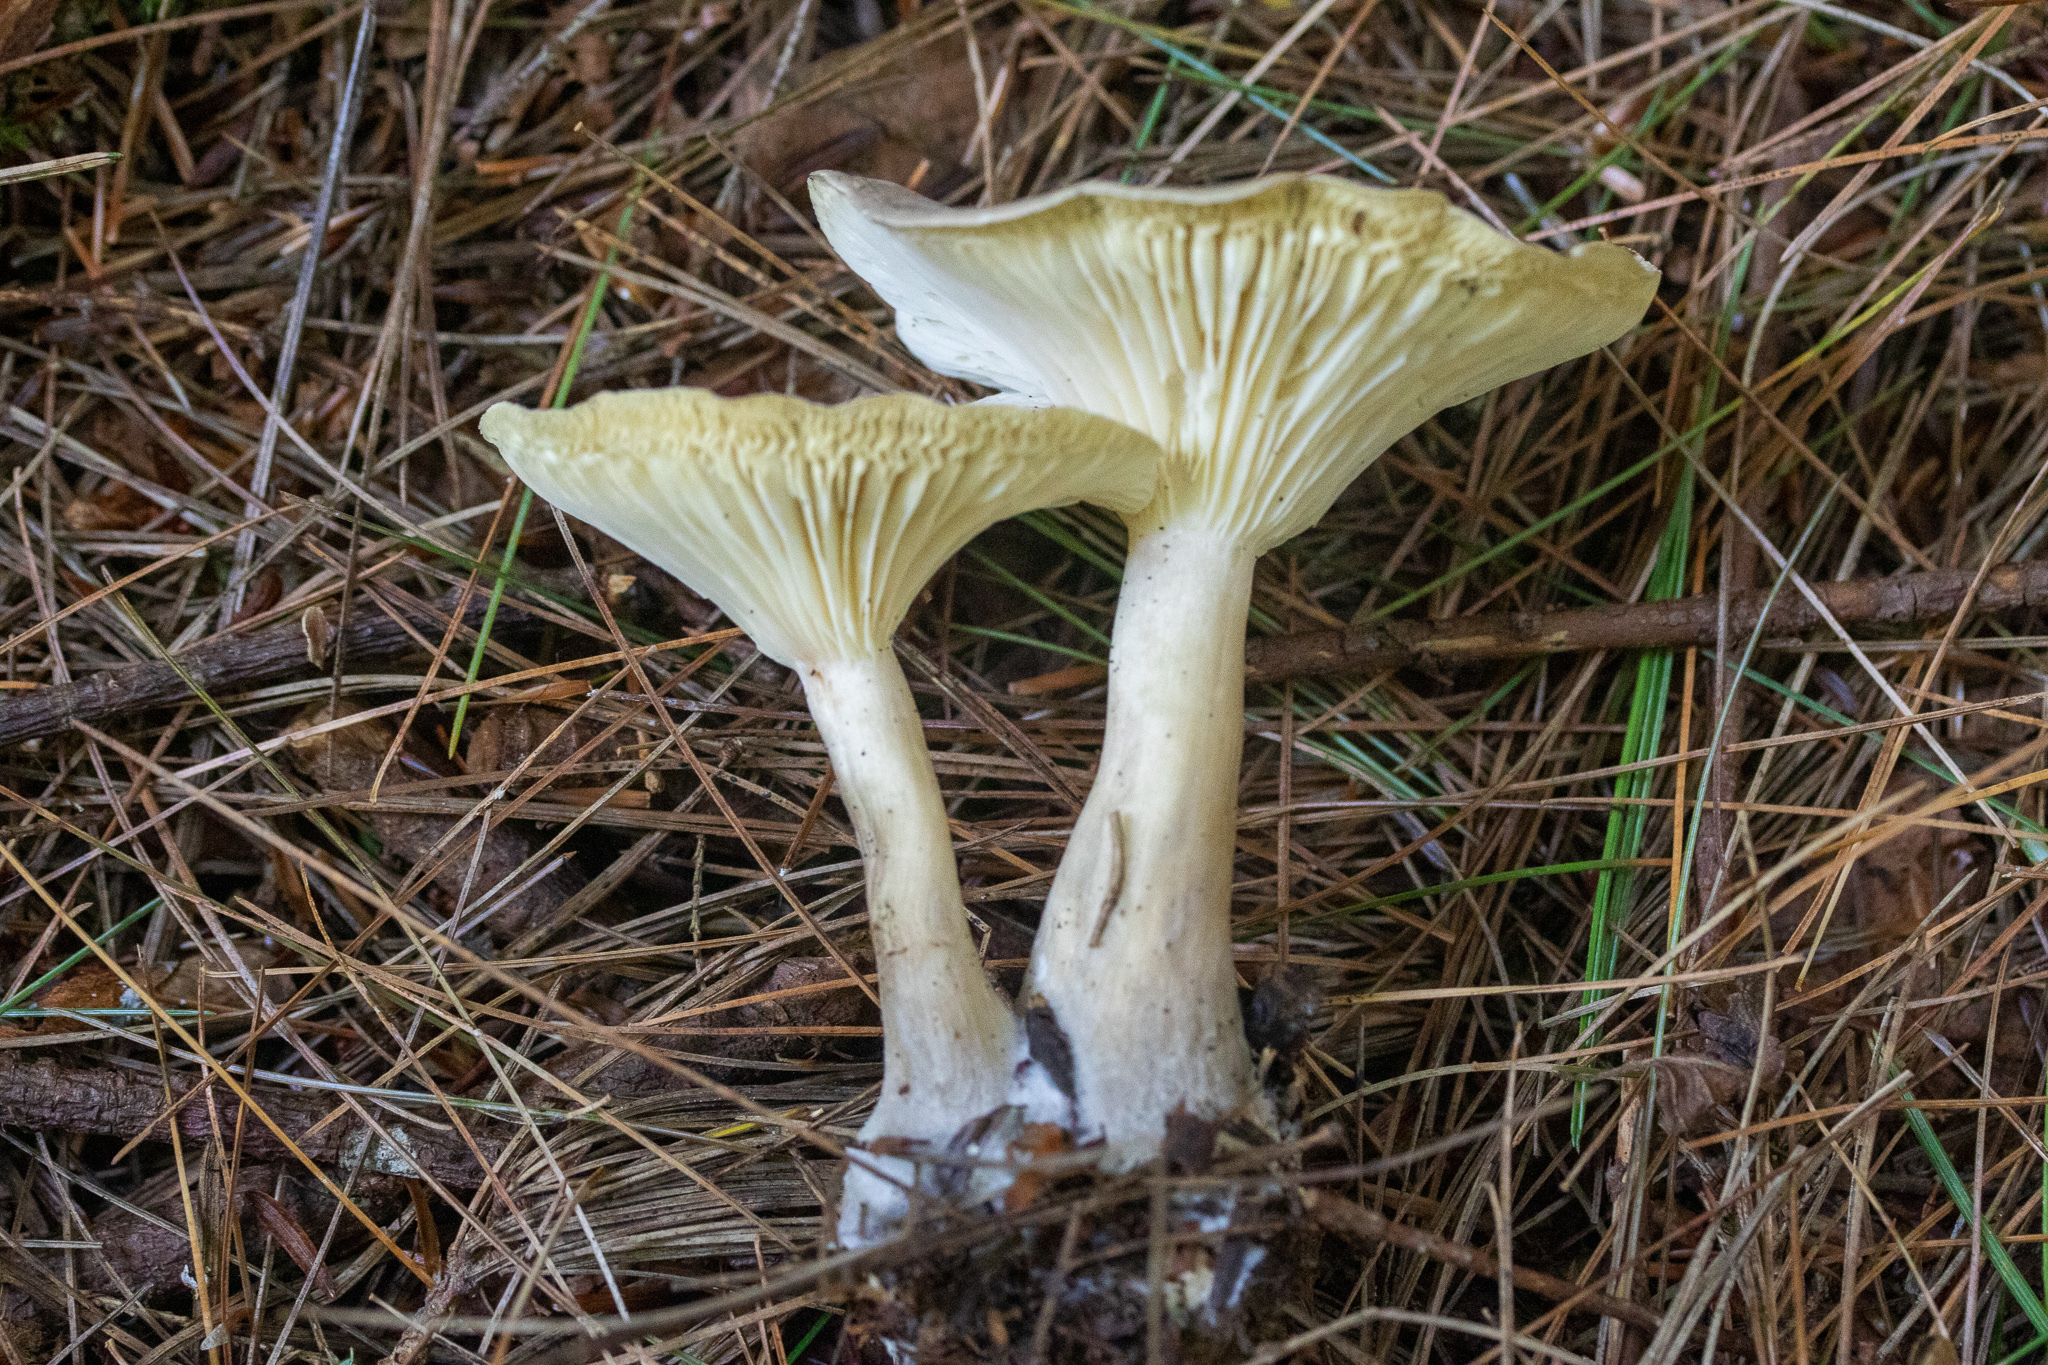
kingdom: Fungi
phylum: Basidiomycota
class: Agaricomycetes
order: Agaricales
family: Hygrophoraceae
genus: Ampulloclitocybe
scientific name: Ampulloclitocybe clavipes
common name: Club foot
